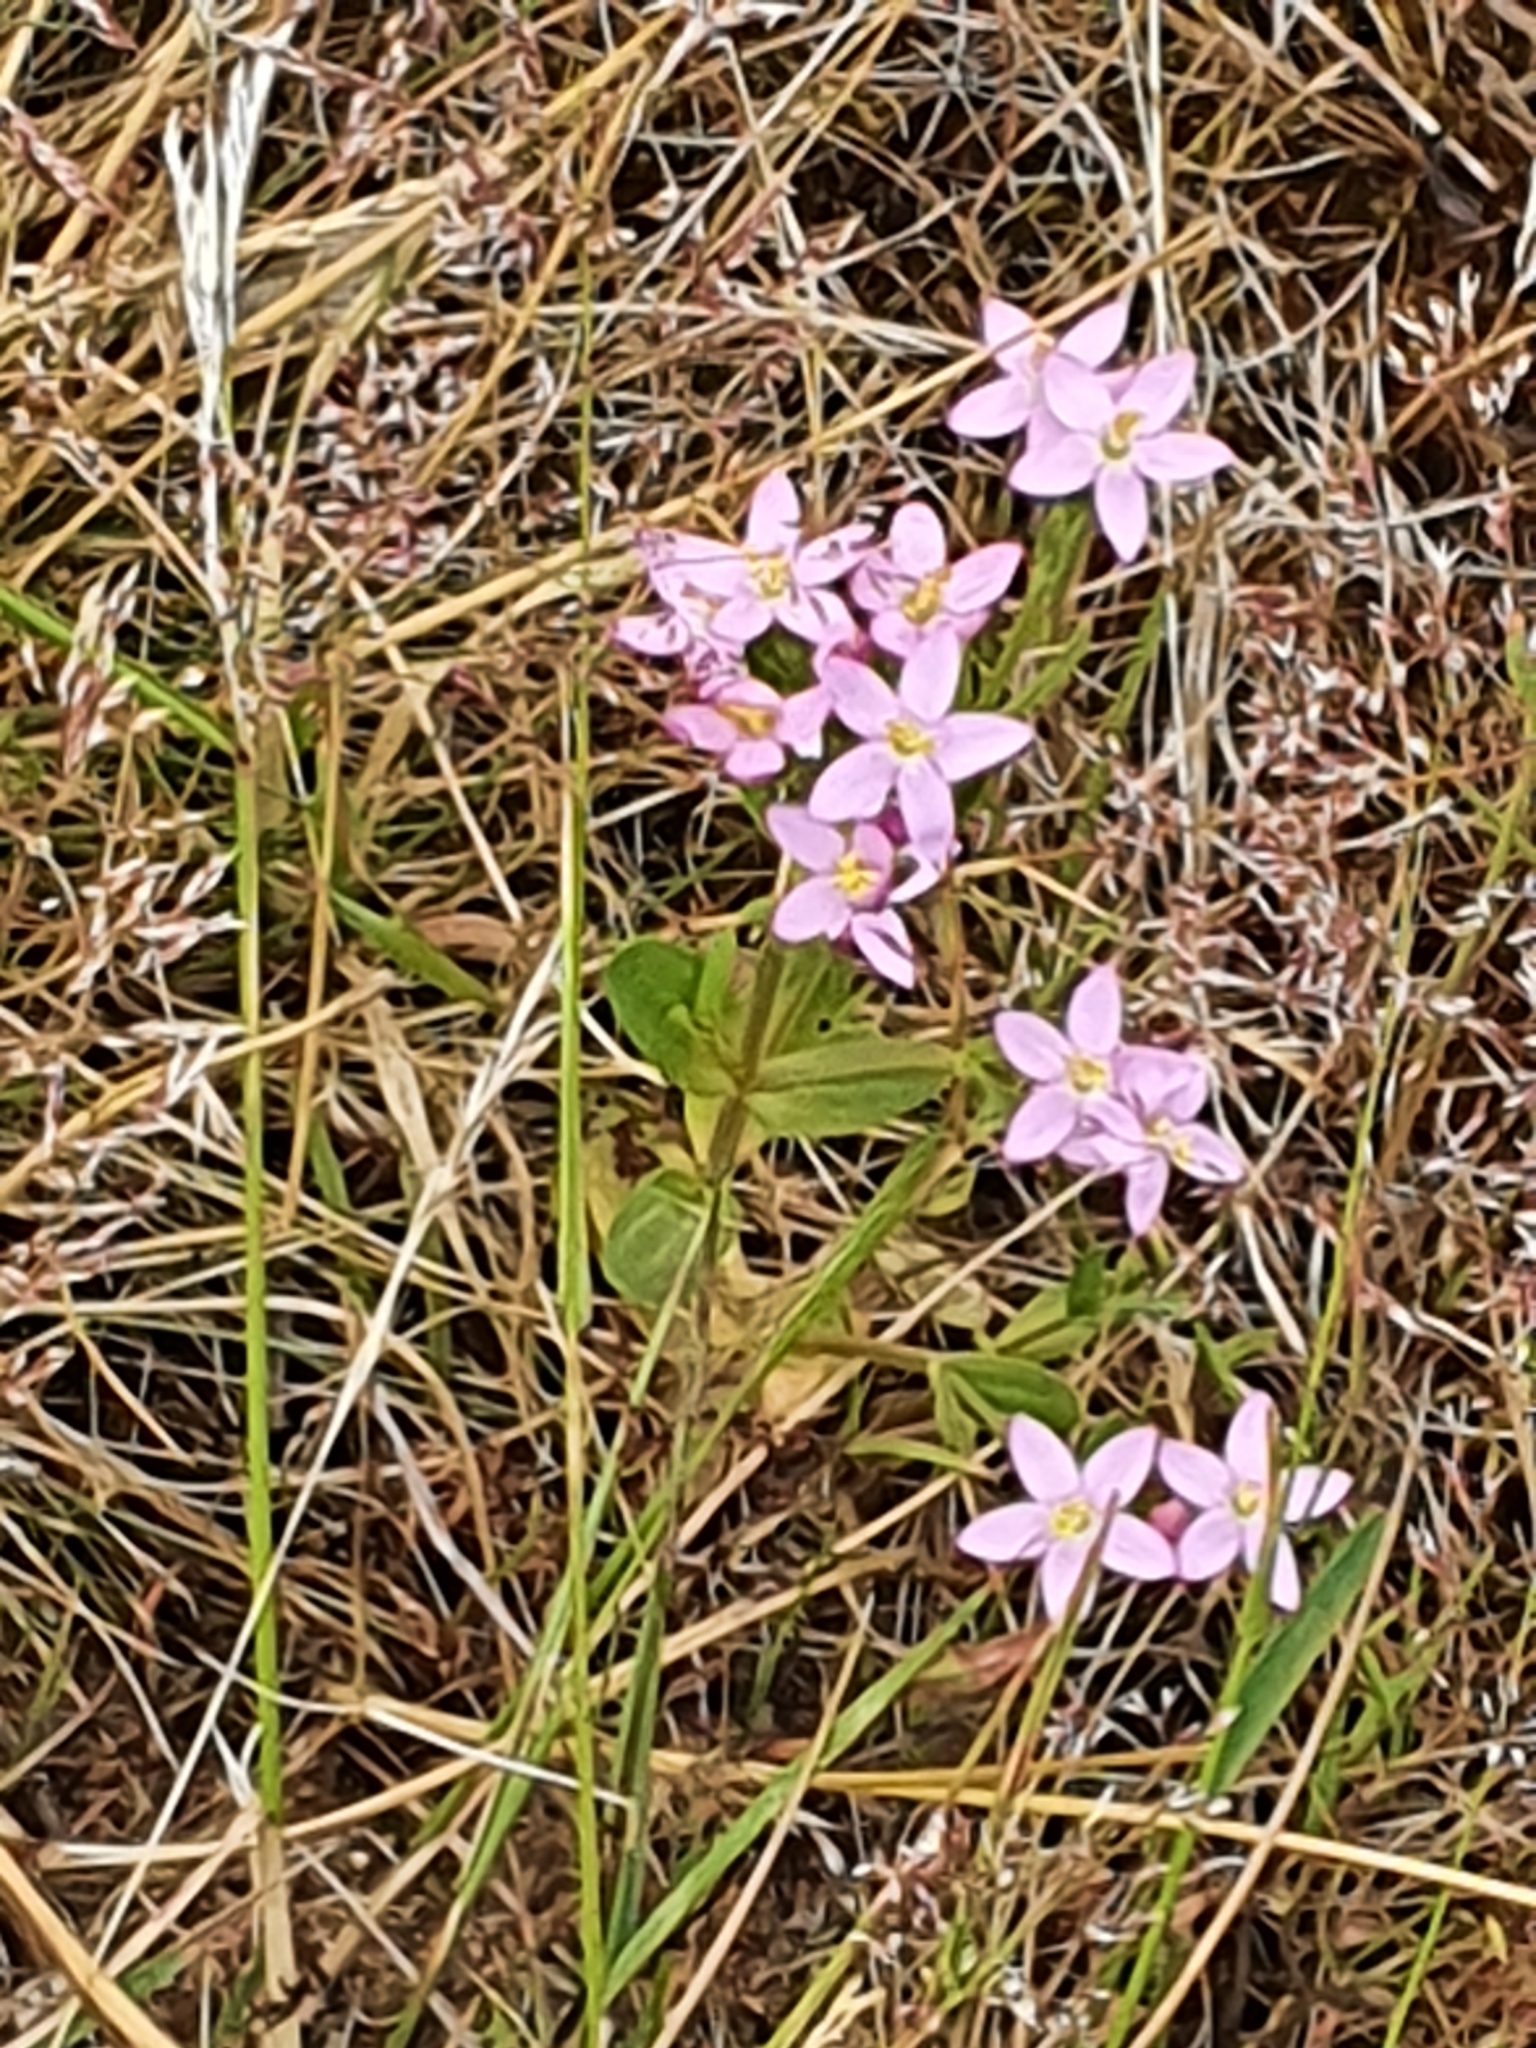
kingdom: Plantae
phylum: Tracheophyta
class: Magnoliopsida
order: Gentianales
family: Gentianaceae
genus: Centaurium
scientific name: Centaurium erythraea
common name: Common centaury
